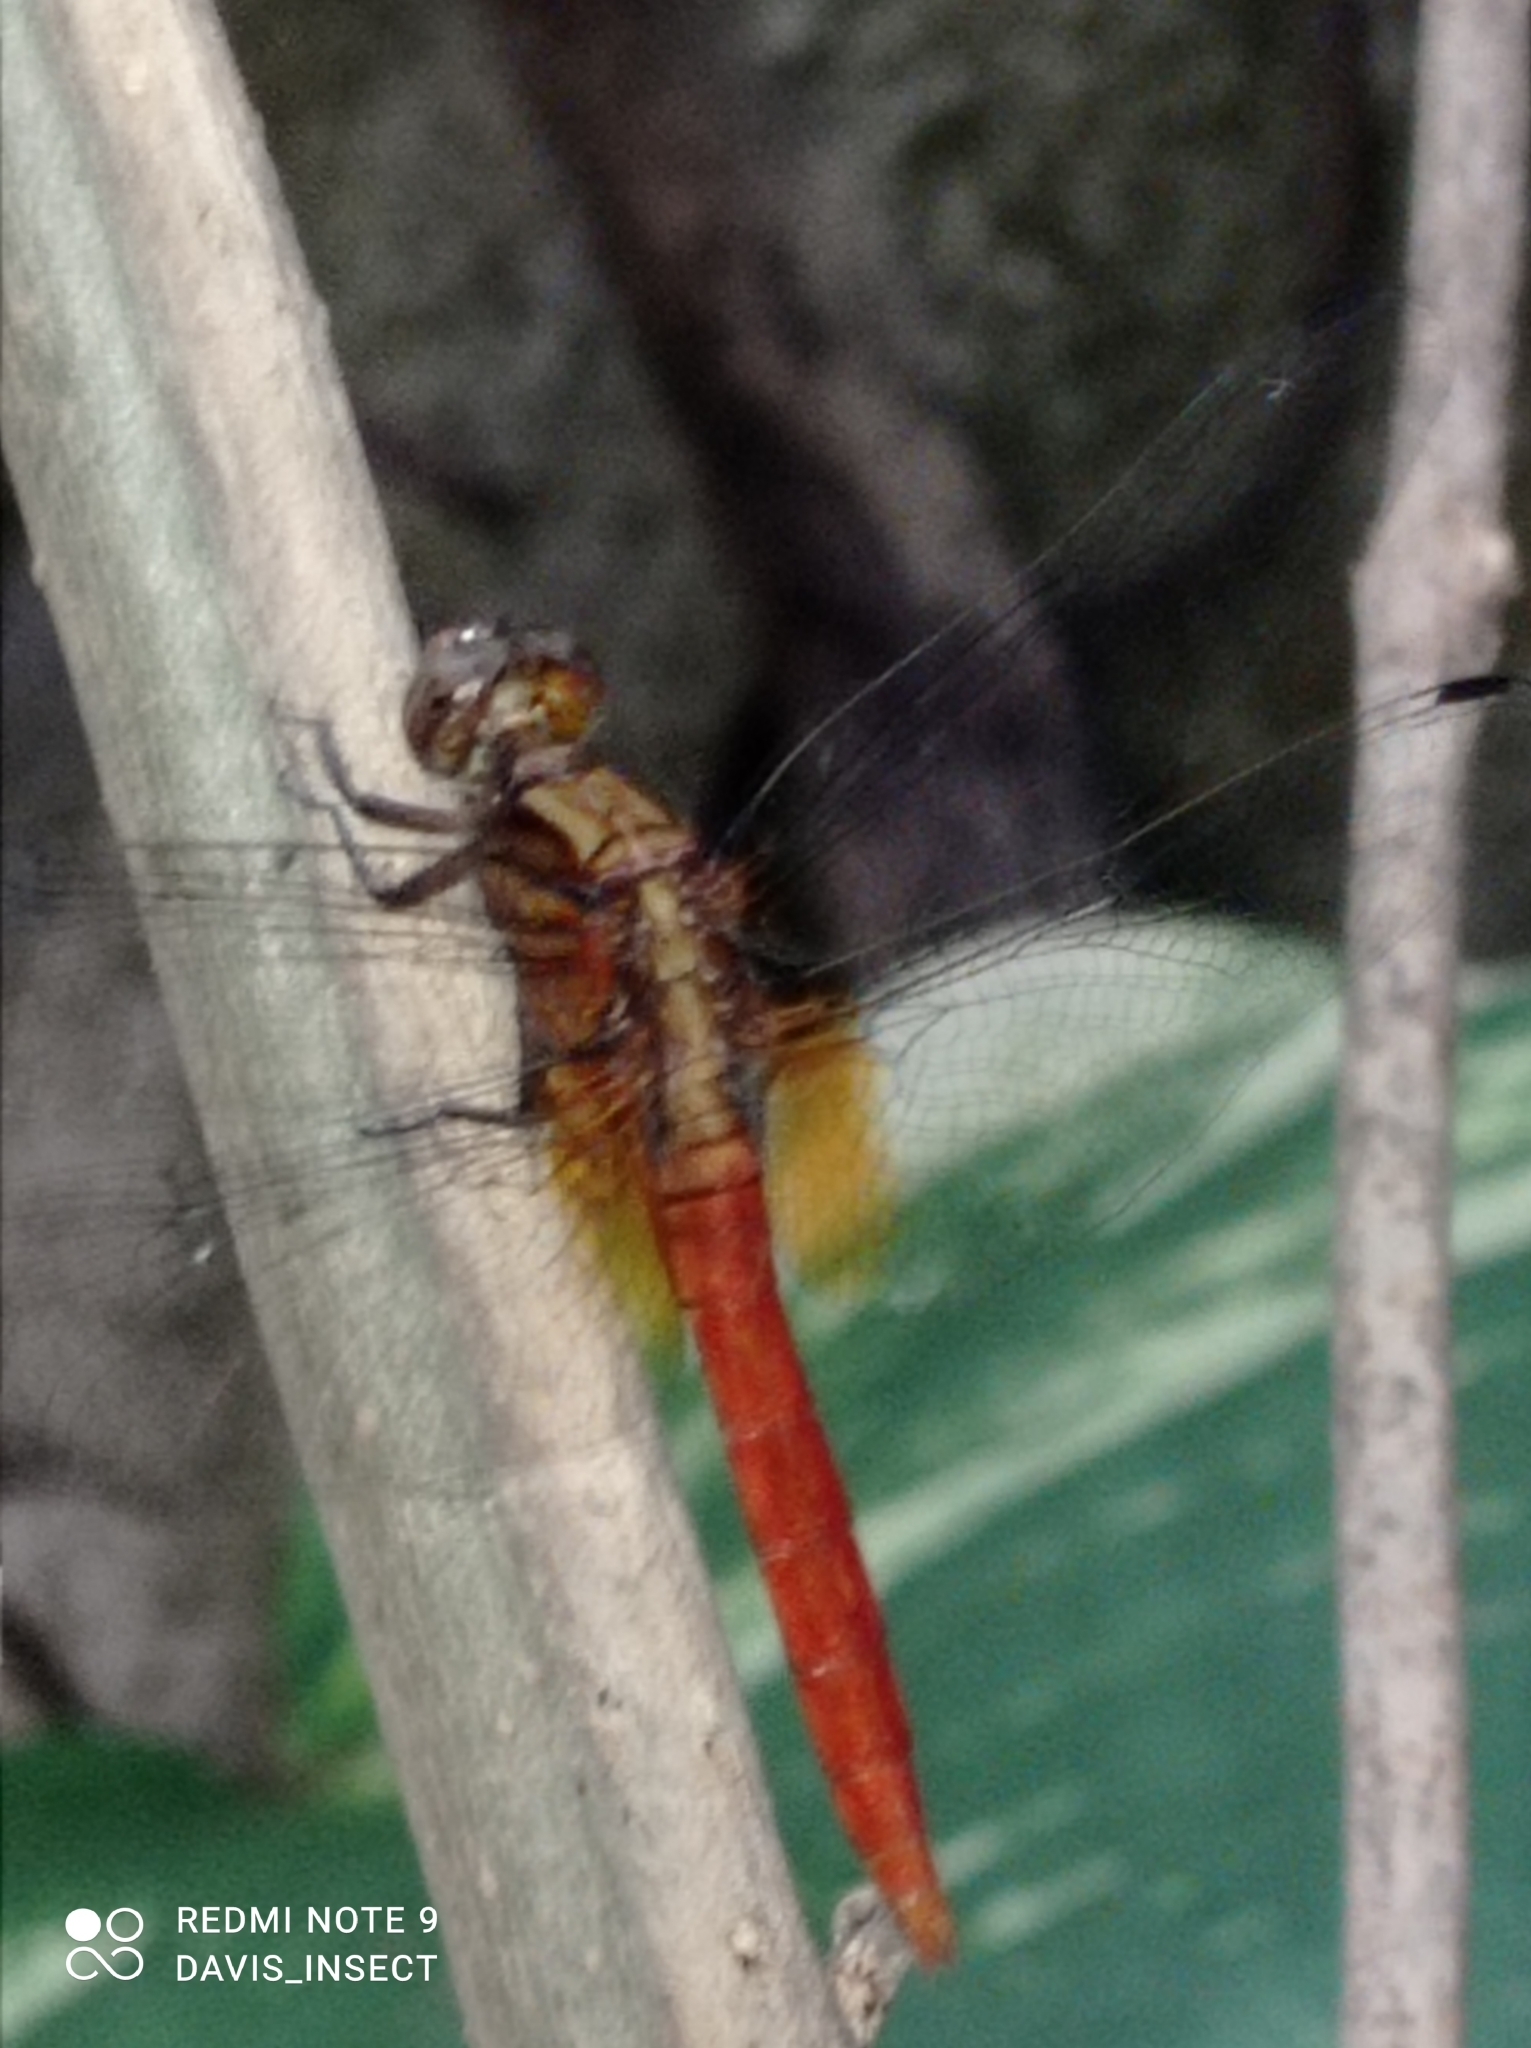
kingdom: Animalia
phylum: Arthropoda
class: Insecta
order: Odonata
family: Libellulidae
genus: Orthetrum
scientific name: Orthetrum testaceum
